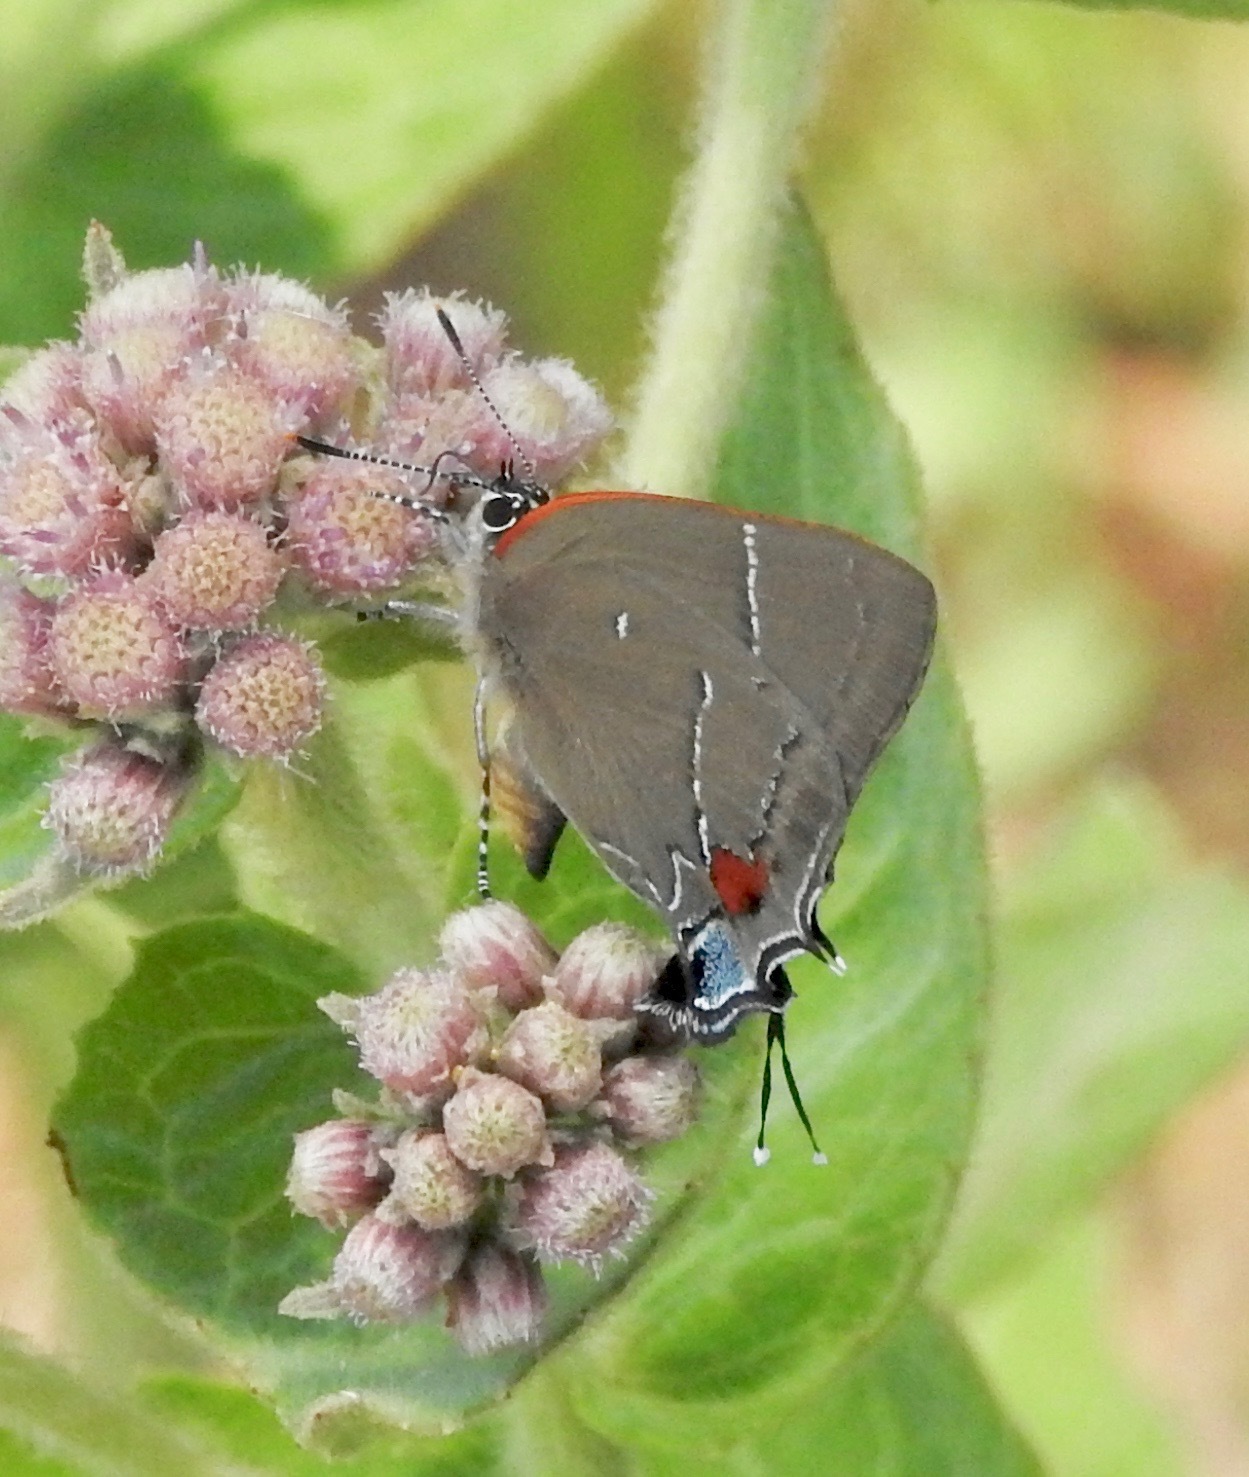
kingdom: Animalia
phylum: Arthropoda
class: Insecta
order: Lepidoptera
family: Lycaenidae
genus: Parrhasius
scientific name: Parrhasius m-album
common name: White m hairstreak
